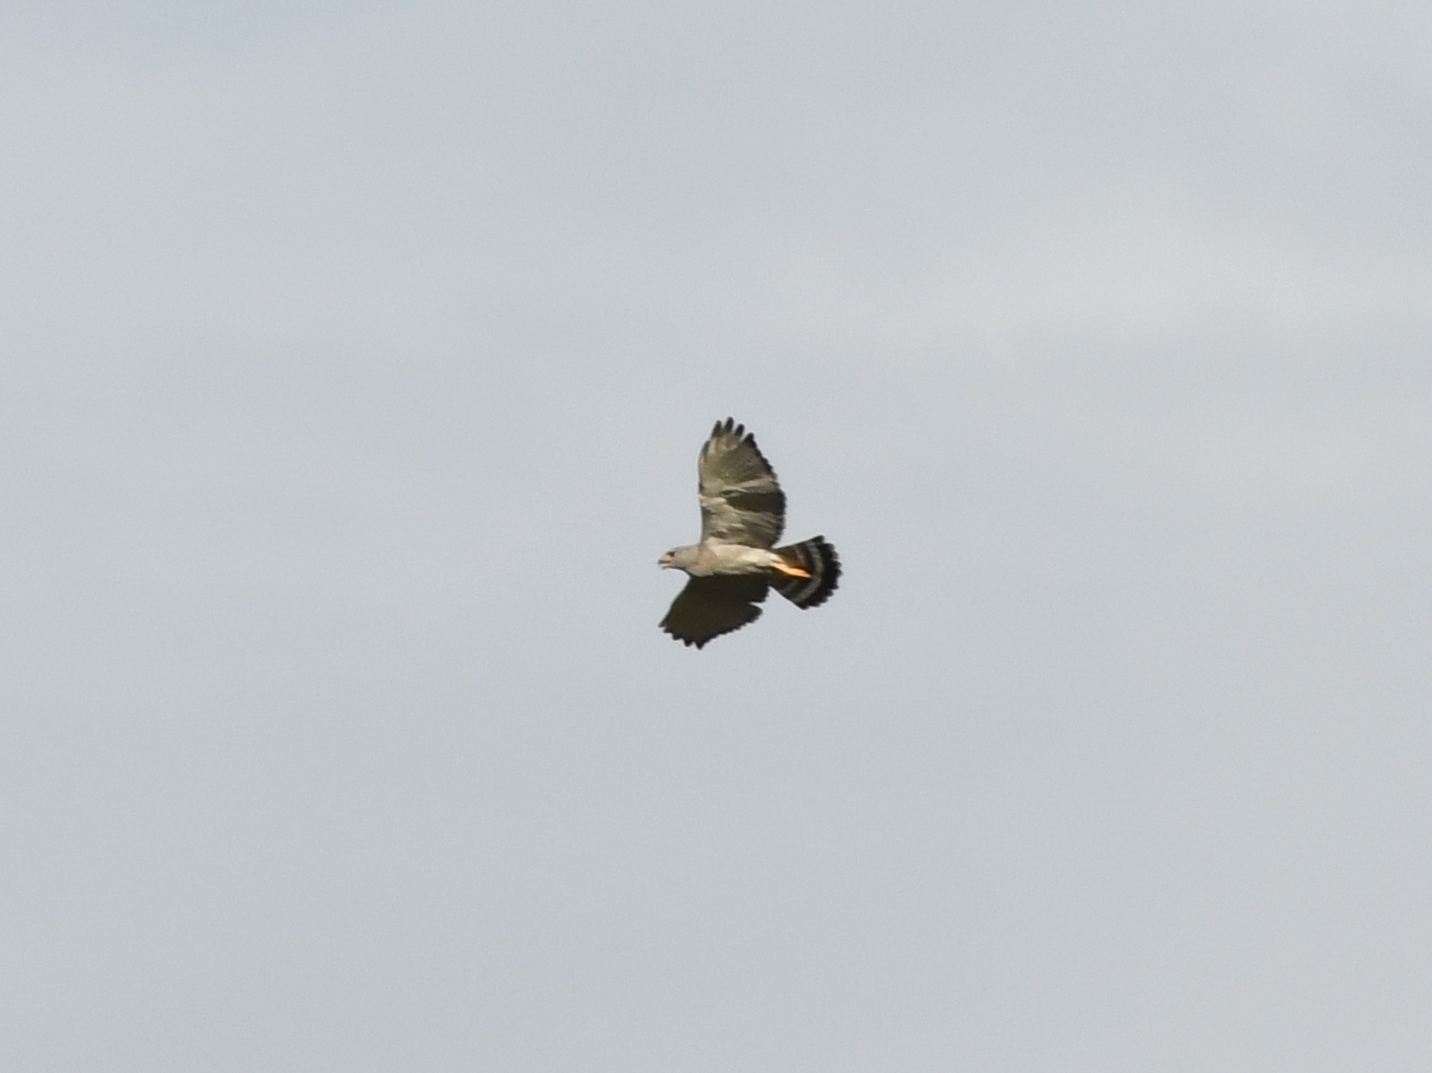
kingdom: Animalia
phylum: Chordata
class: Aves
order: Accipitriformes
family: Accipitridae
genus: Buteo
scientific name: Buteo nitidus
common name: Grey-lined hawk
